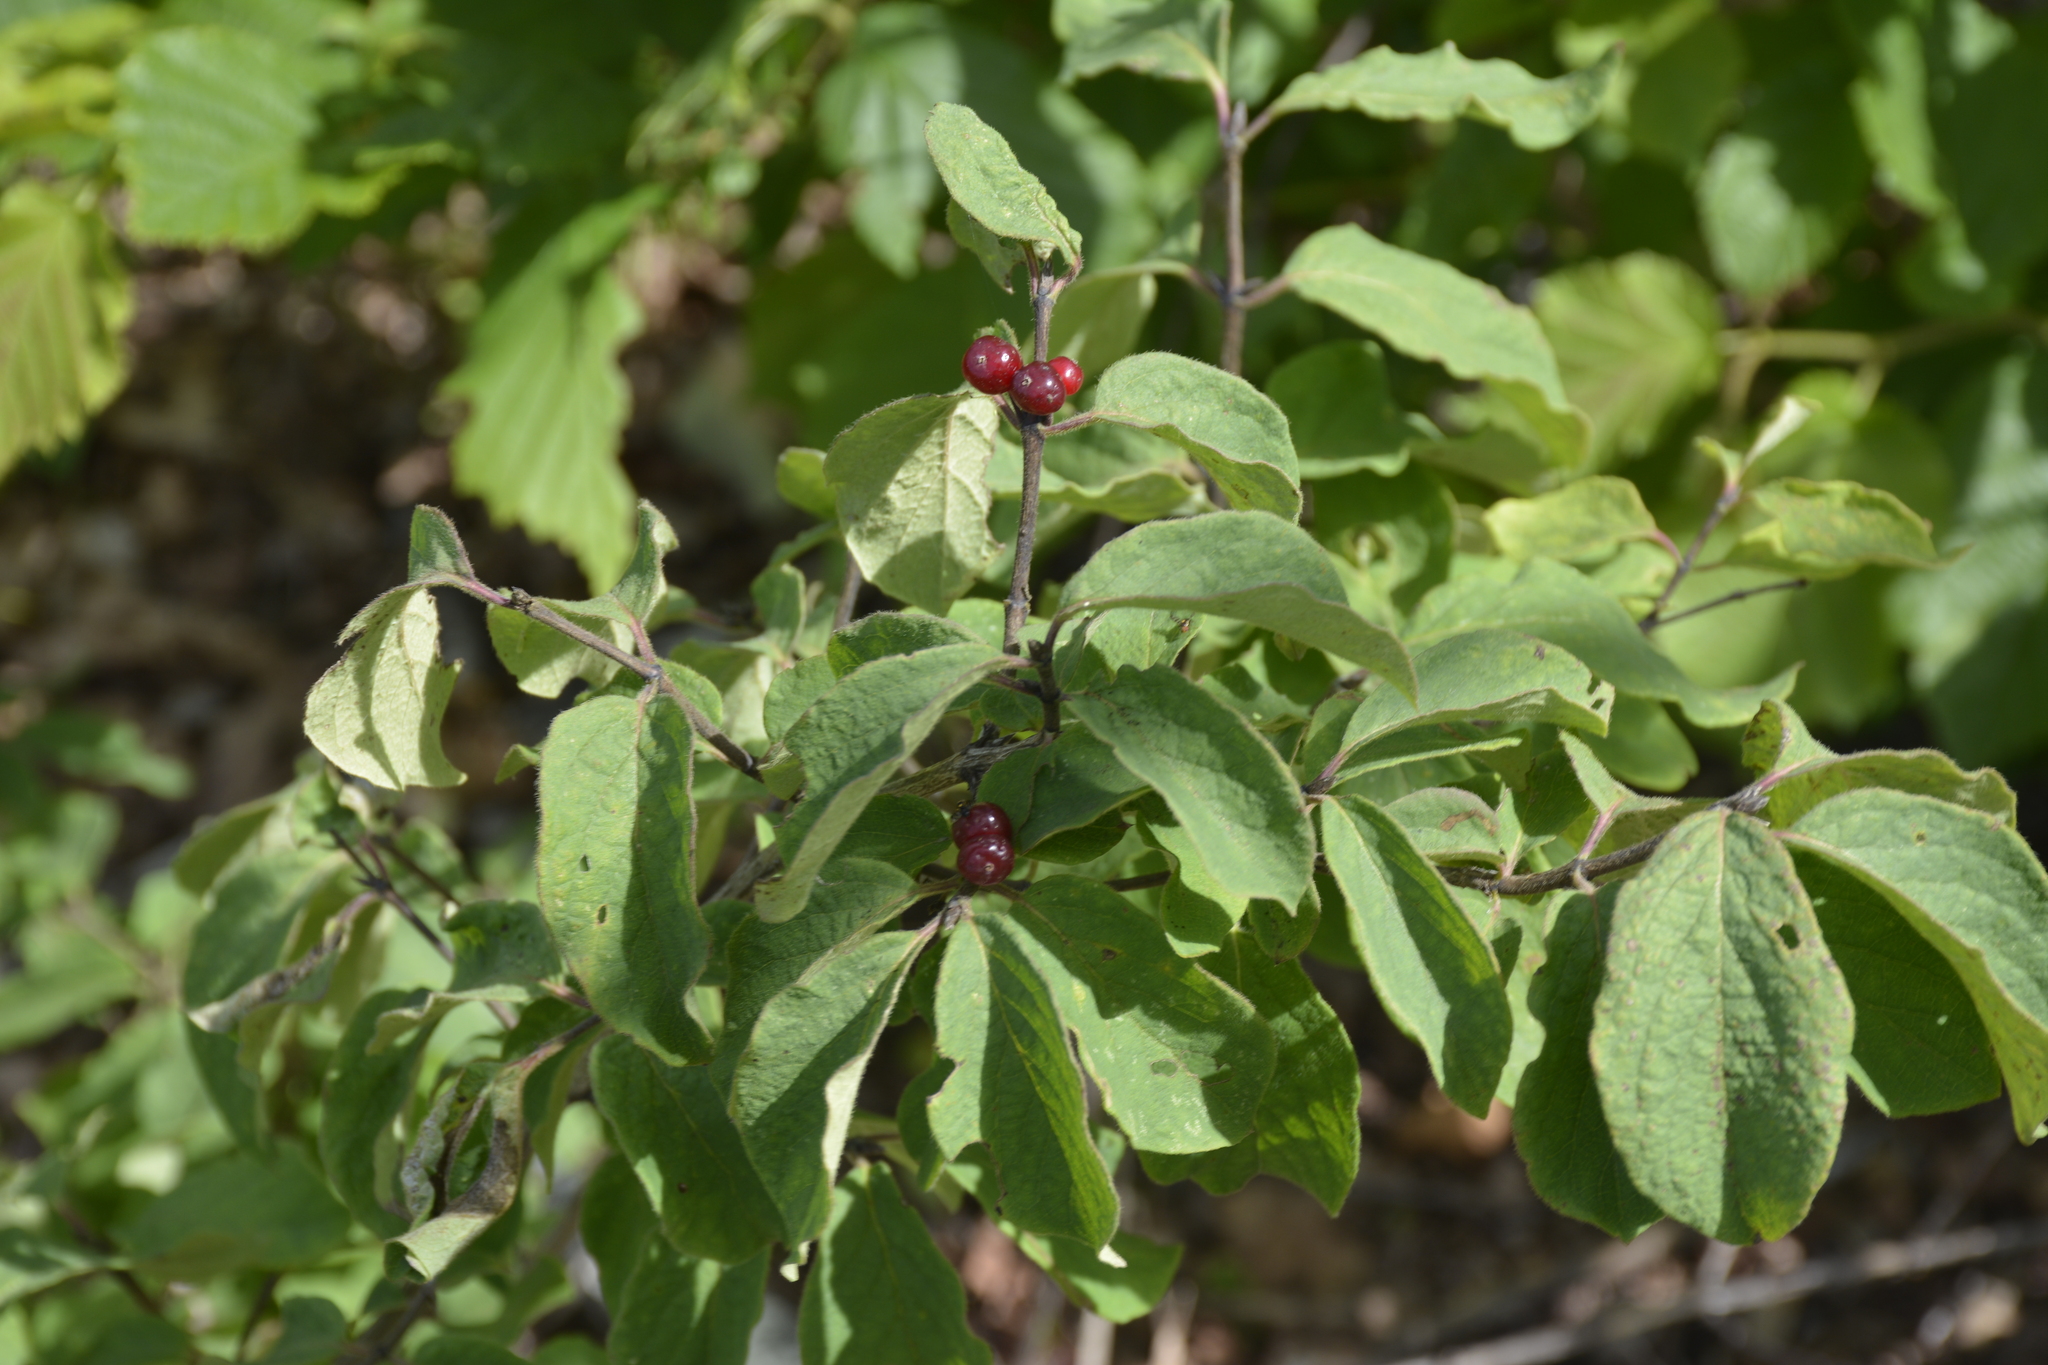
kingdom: Plantae
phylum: Tracheophyta
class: Magnoliopsida
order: Dipsacales
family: Caprifoliaceae
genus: Lonicera
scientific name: Lonicera xylosteum
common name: Fly honeysuckle
